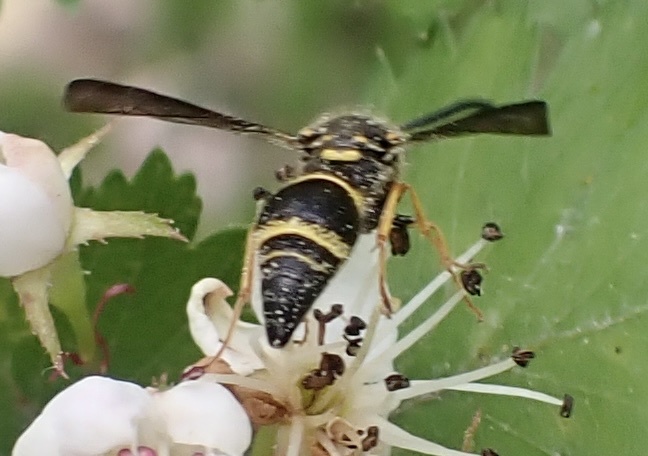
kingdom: Animalia
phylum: Arthropoda
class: Insecta
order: Hymenoptera
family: Vespidae
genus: Ancistrocerus
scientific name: Ancistrocerus campestris
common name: Smiling mason wasp
